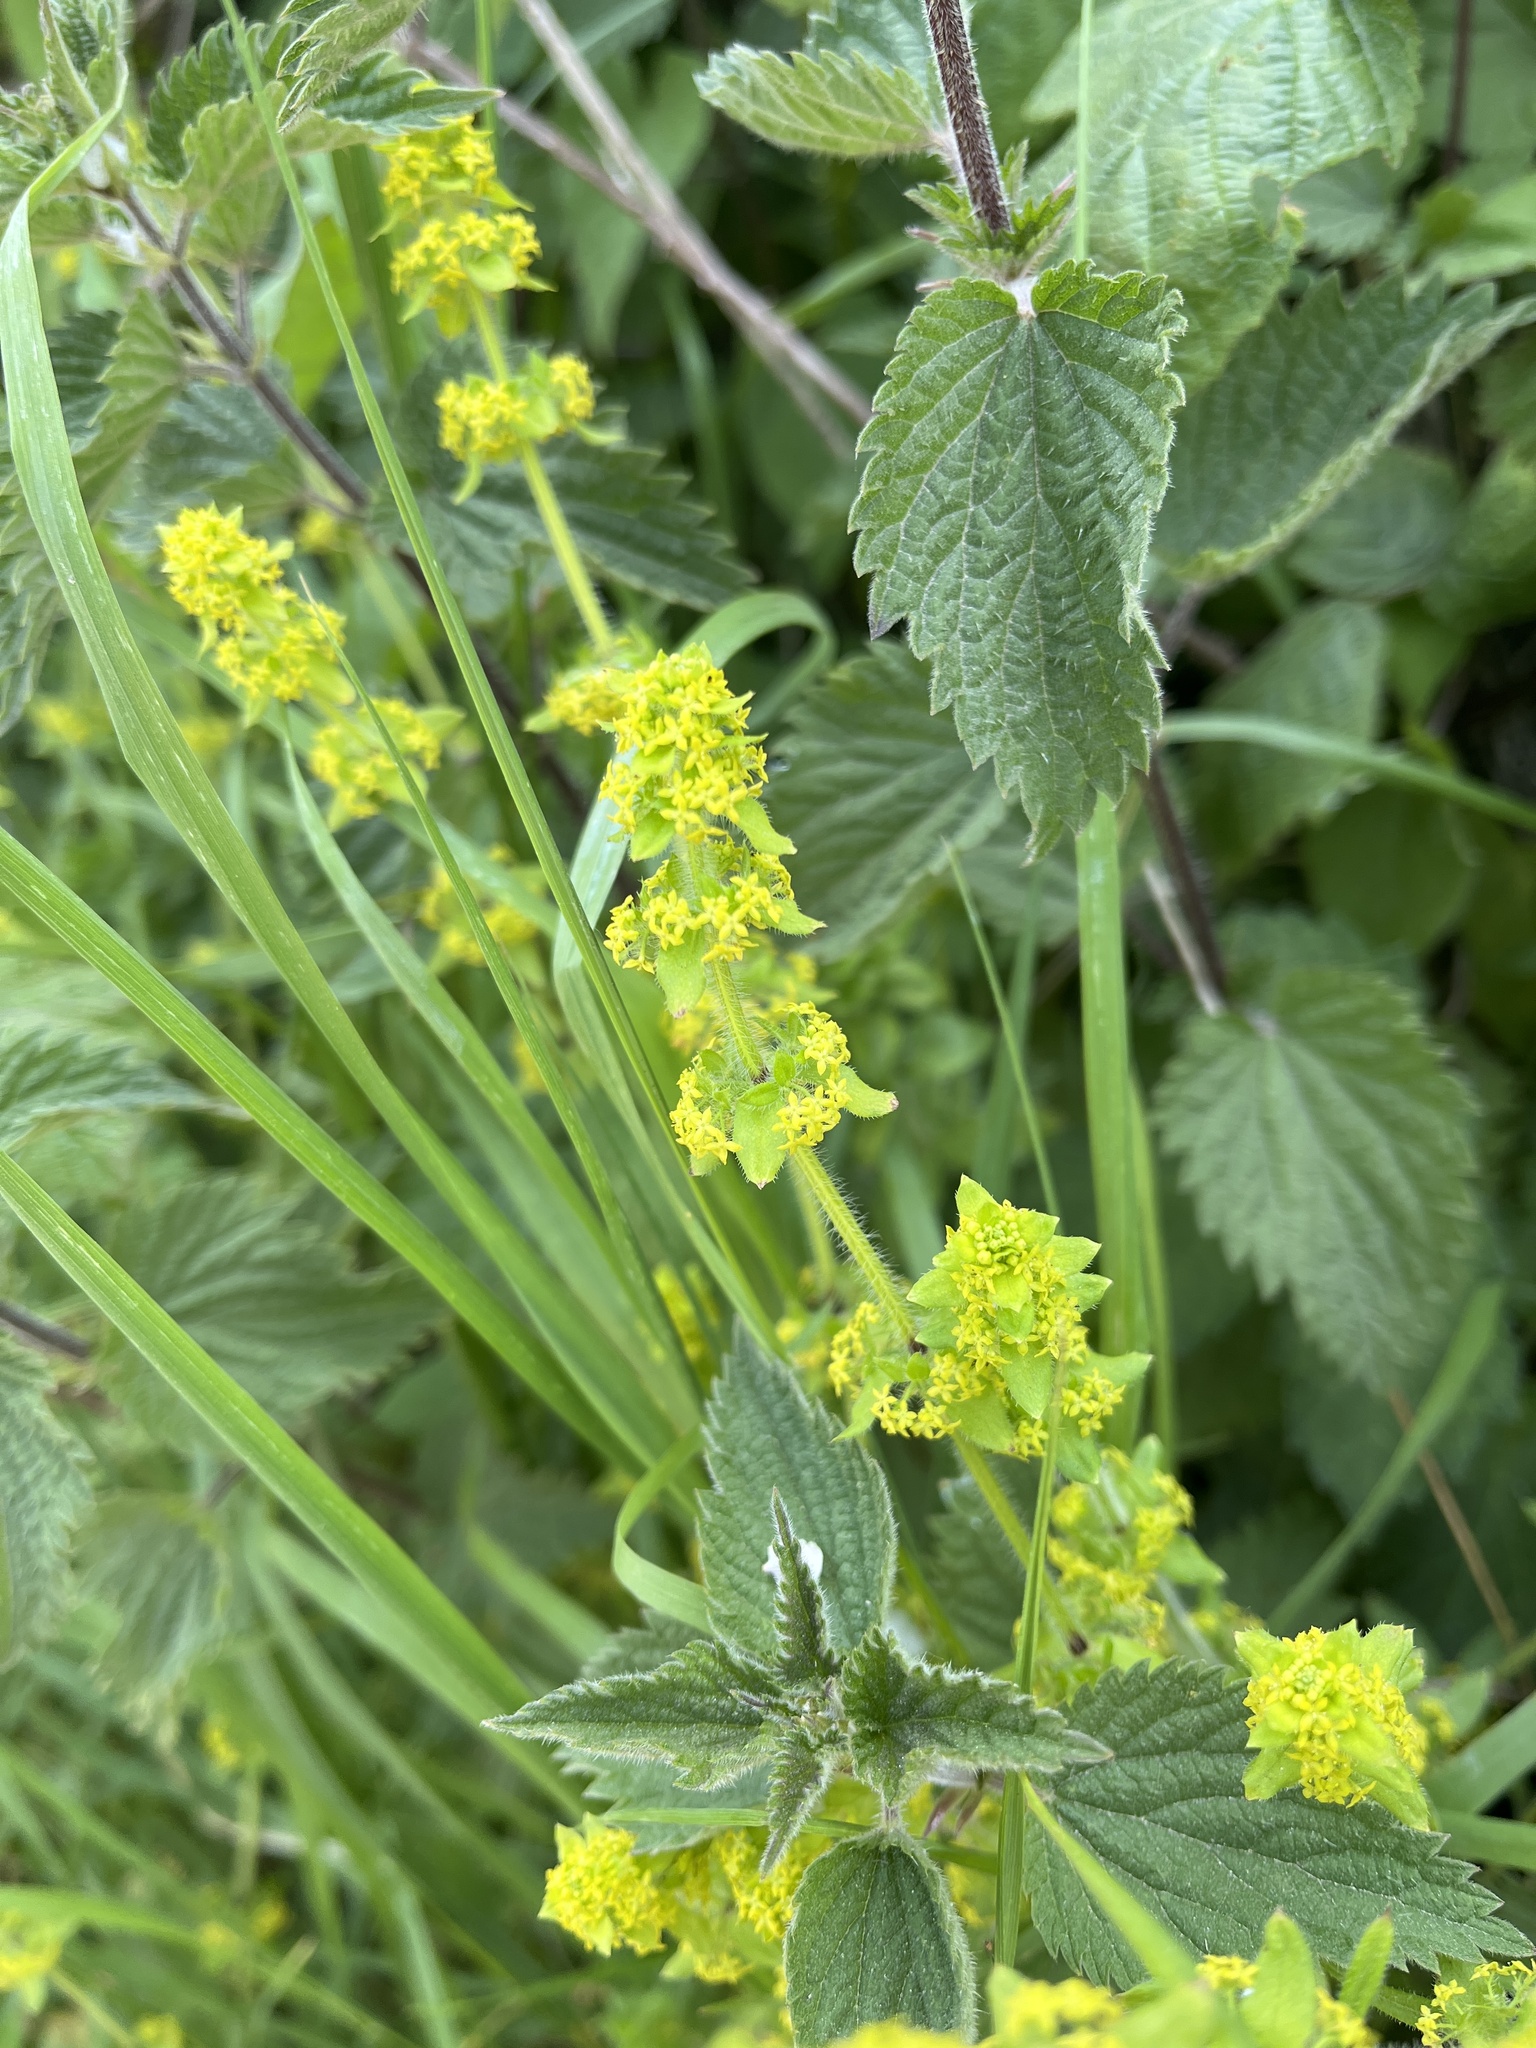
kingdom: Plantae
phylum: Tracheophyta
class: Magnoliopsida
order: Gentianales
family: Rubiaceae
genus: Cruciata
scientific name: Cruciata laevipes
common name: Crosswort
